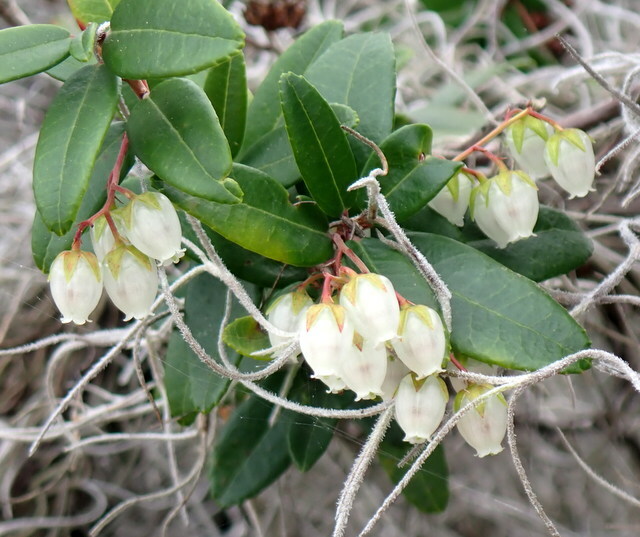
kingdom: Plantae
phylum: Tracheophyta
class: Magnoliopsida
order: Ericales
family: Ericaceae
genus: Pieris
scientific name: Pieris phillyreifolia
